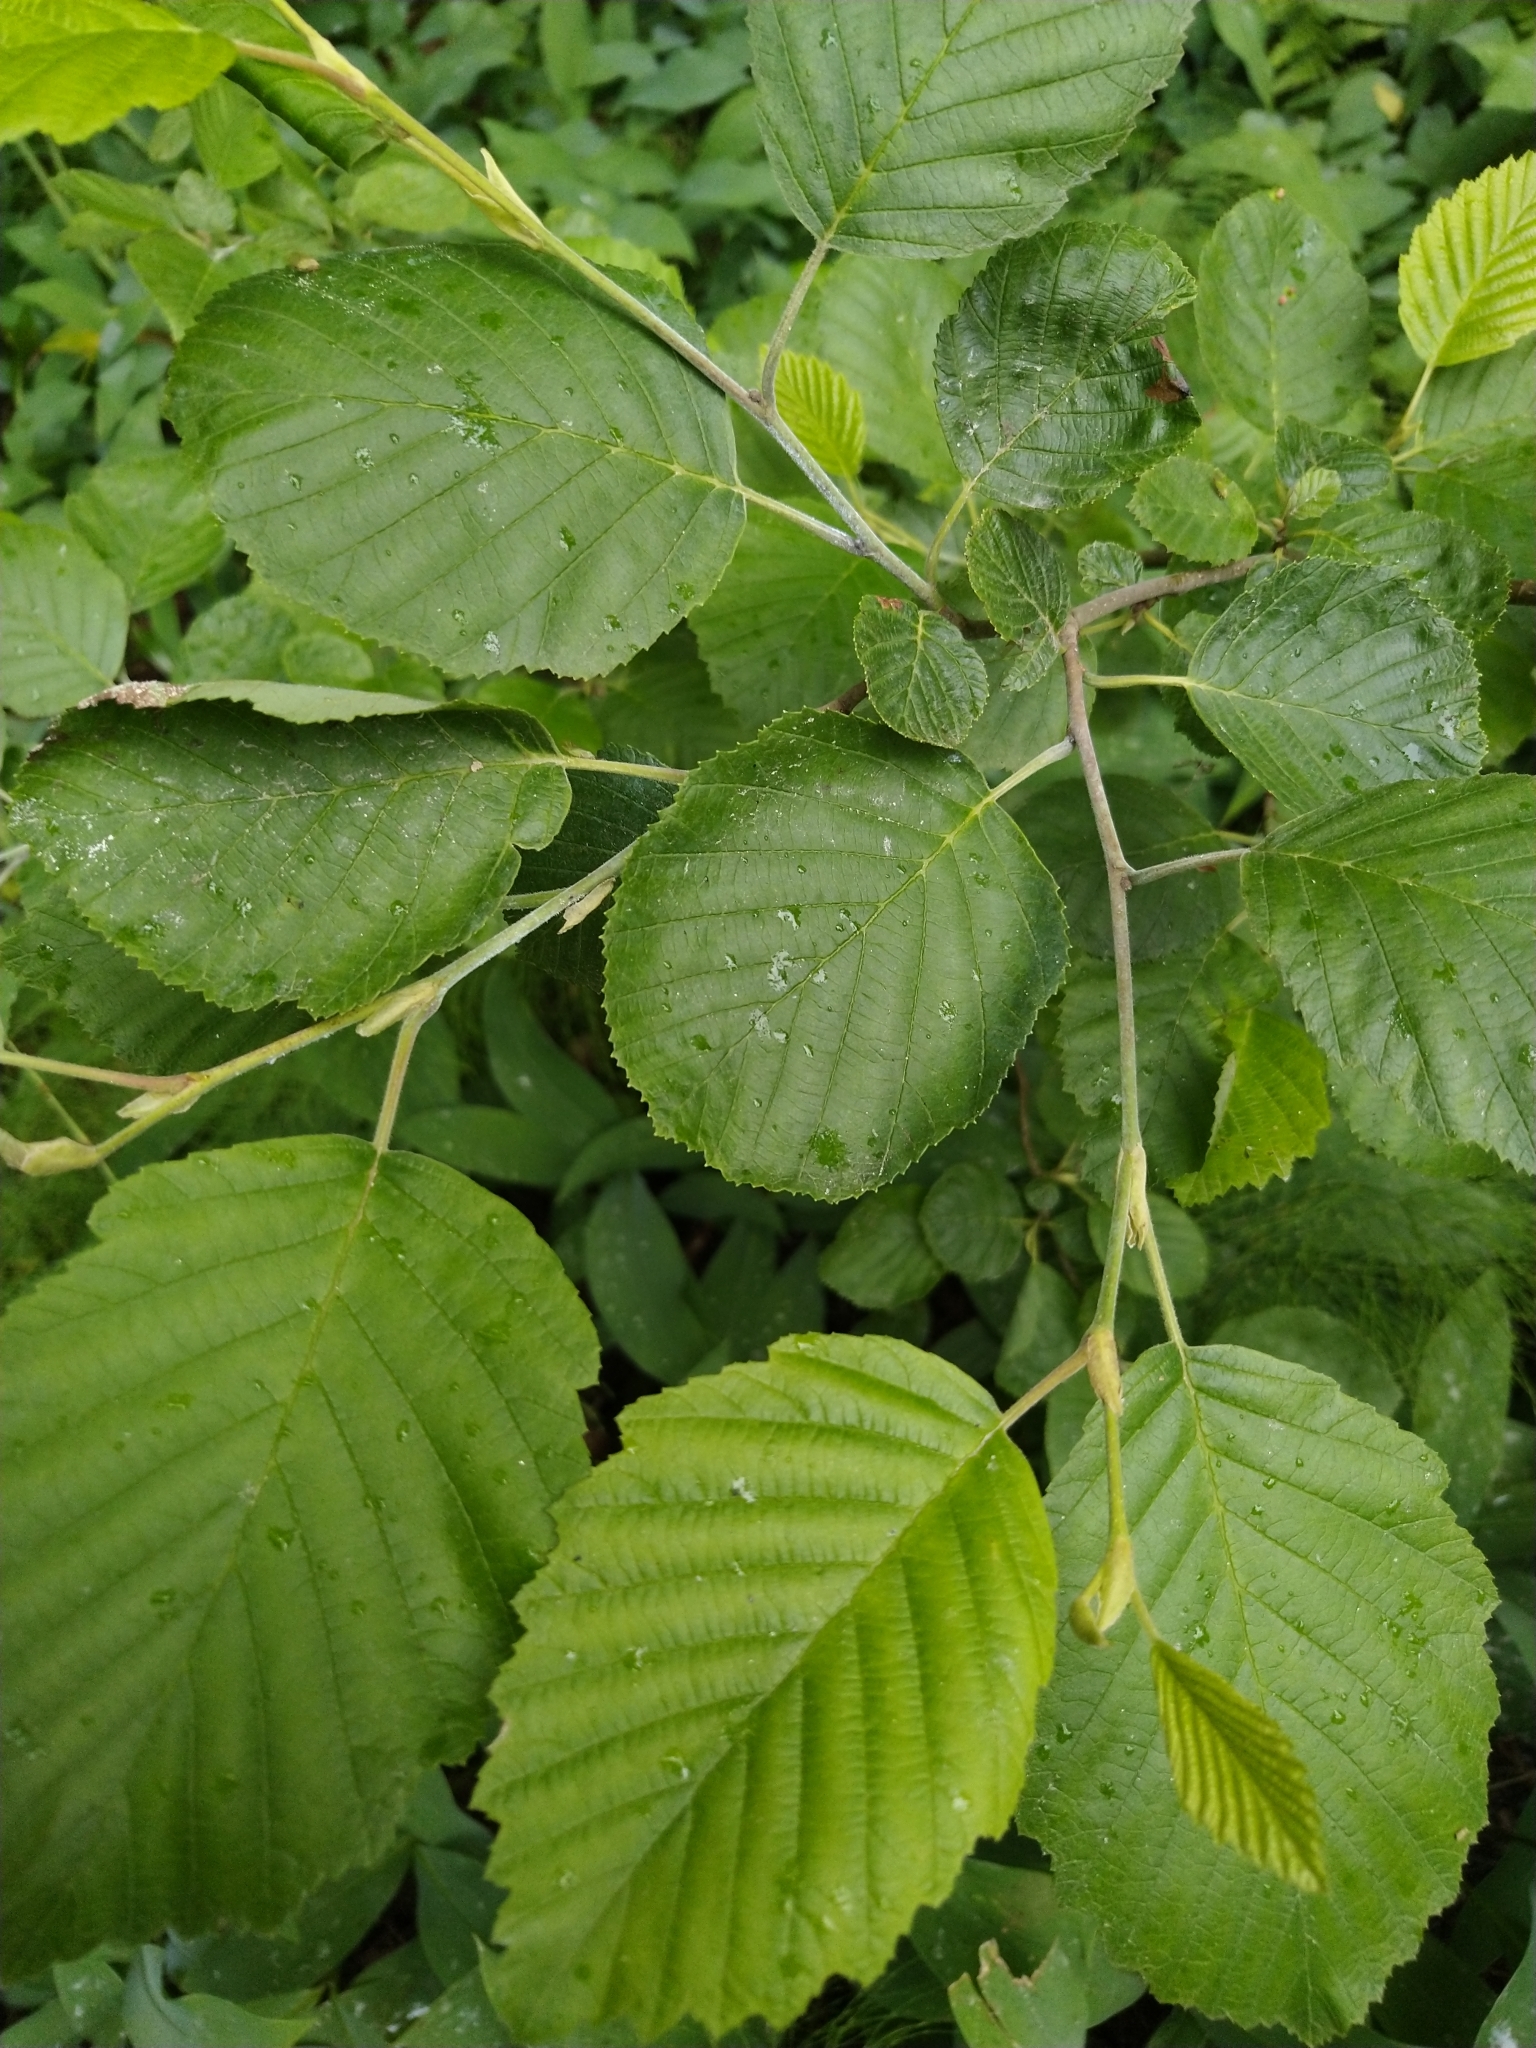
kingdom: Plantae
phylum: Tracheophyta
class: Magnoliopsida
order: Fagales
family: Betulaceae
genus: Alnus
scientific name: Alnus incana
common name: Grey alder
